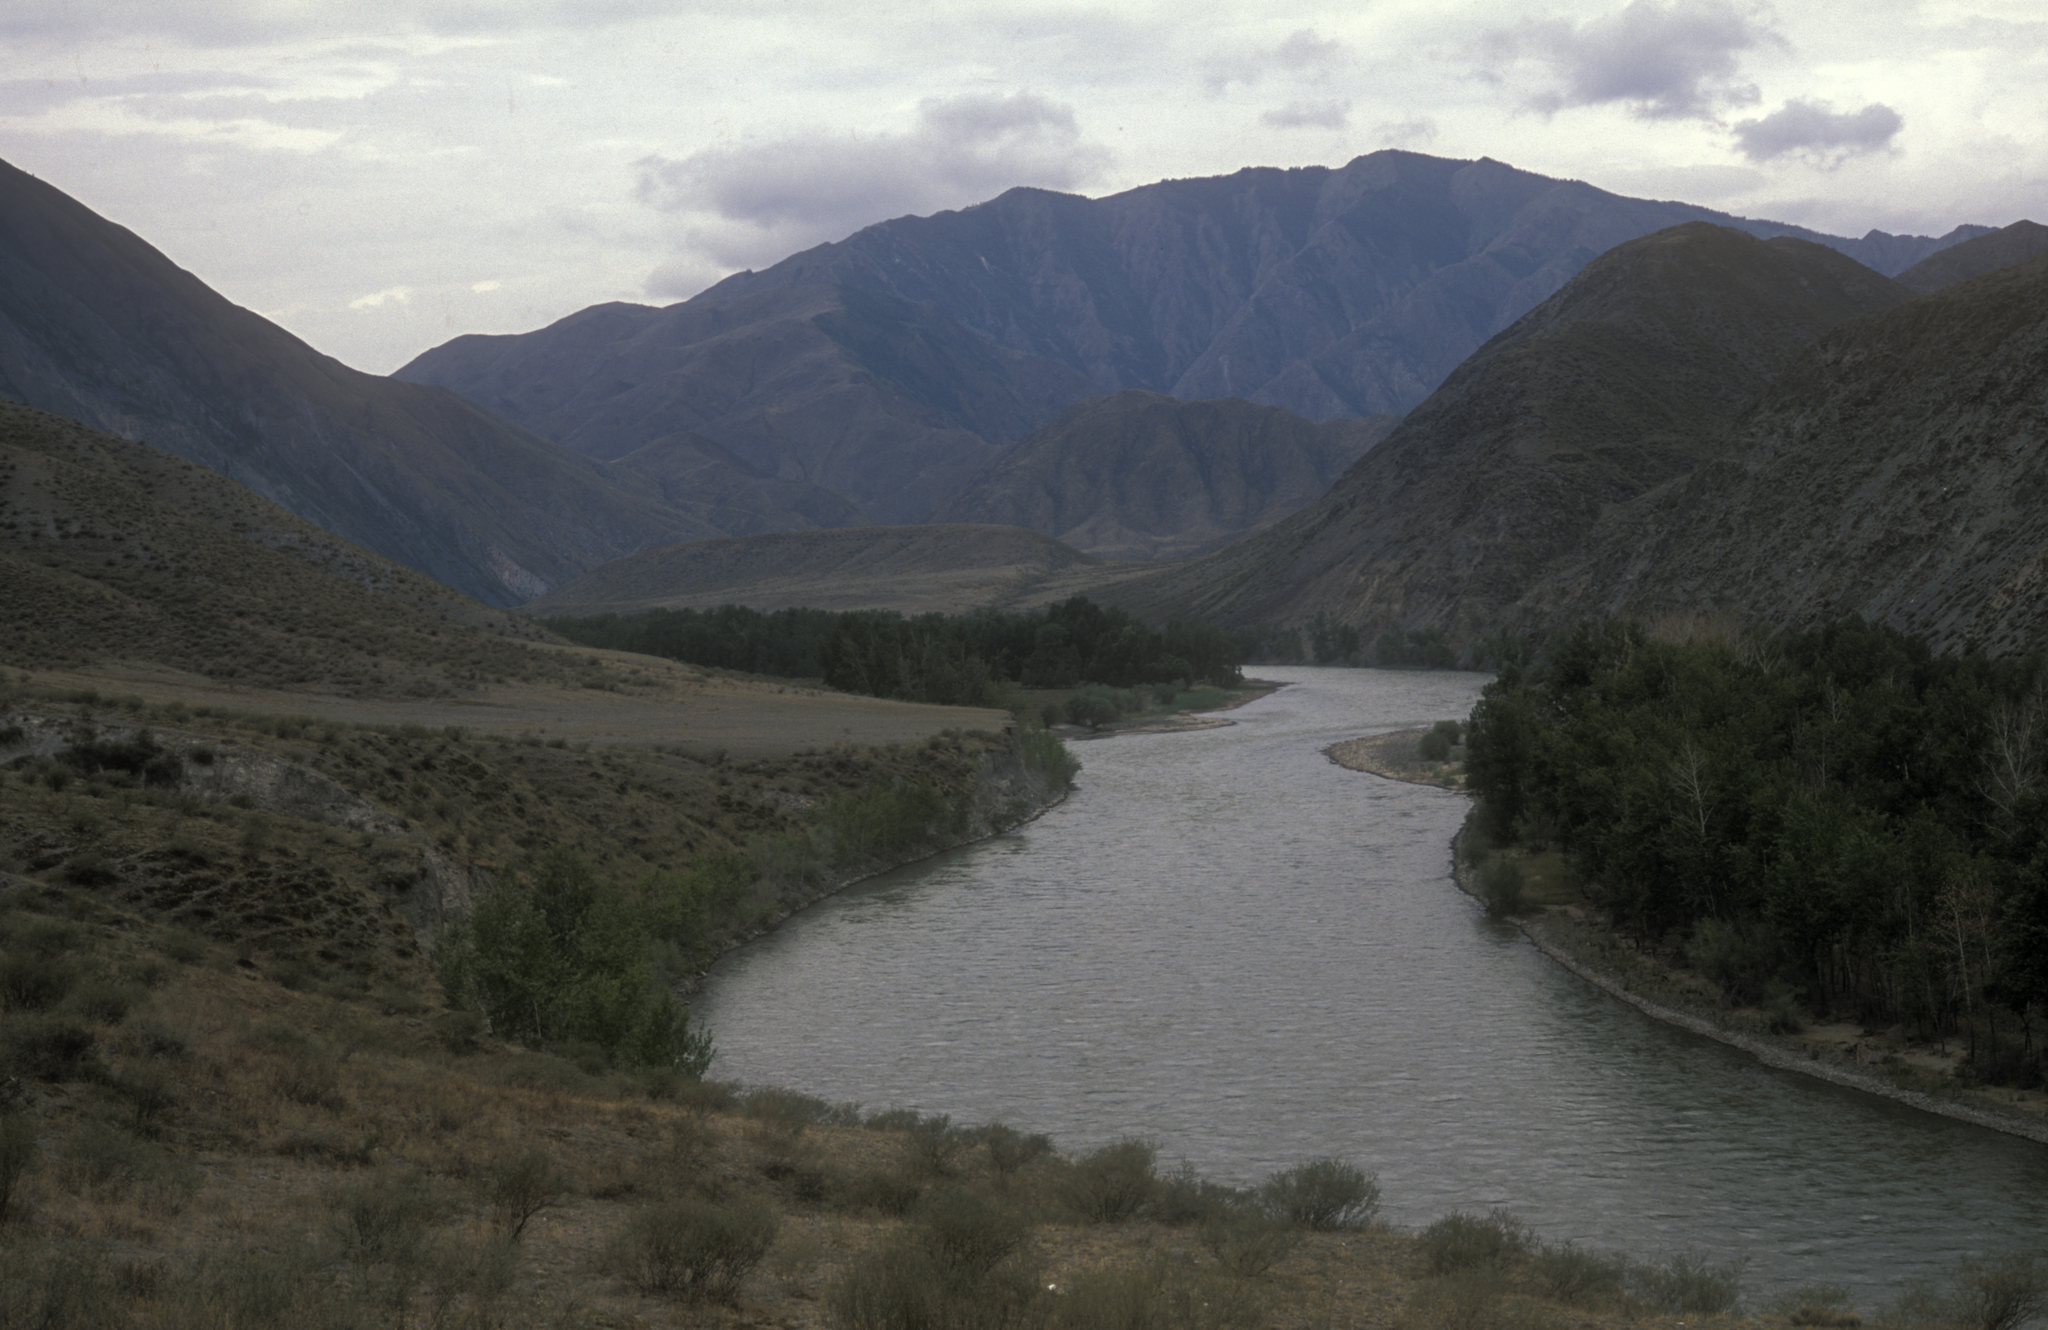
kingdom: Plantae
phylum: Tracheophyta
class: Magnoliopsida
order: Malpighiales
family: Salicaceae
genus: Populus
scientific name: Populus laurifolia
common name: Laurel-leaf poplar
